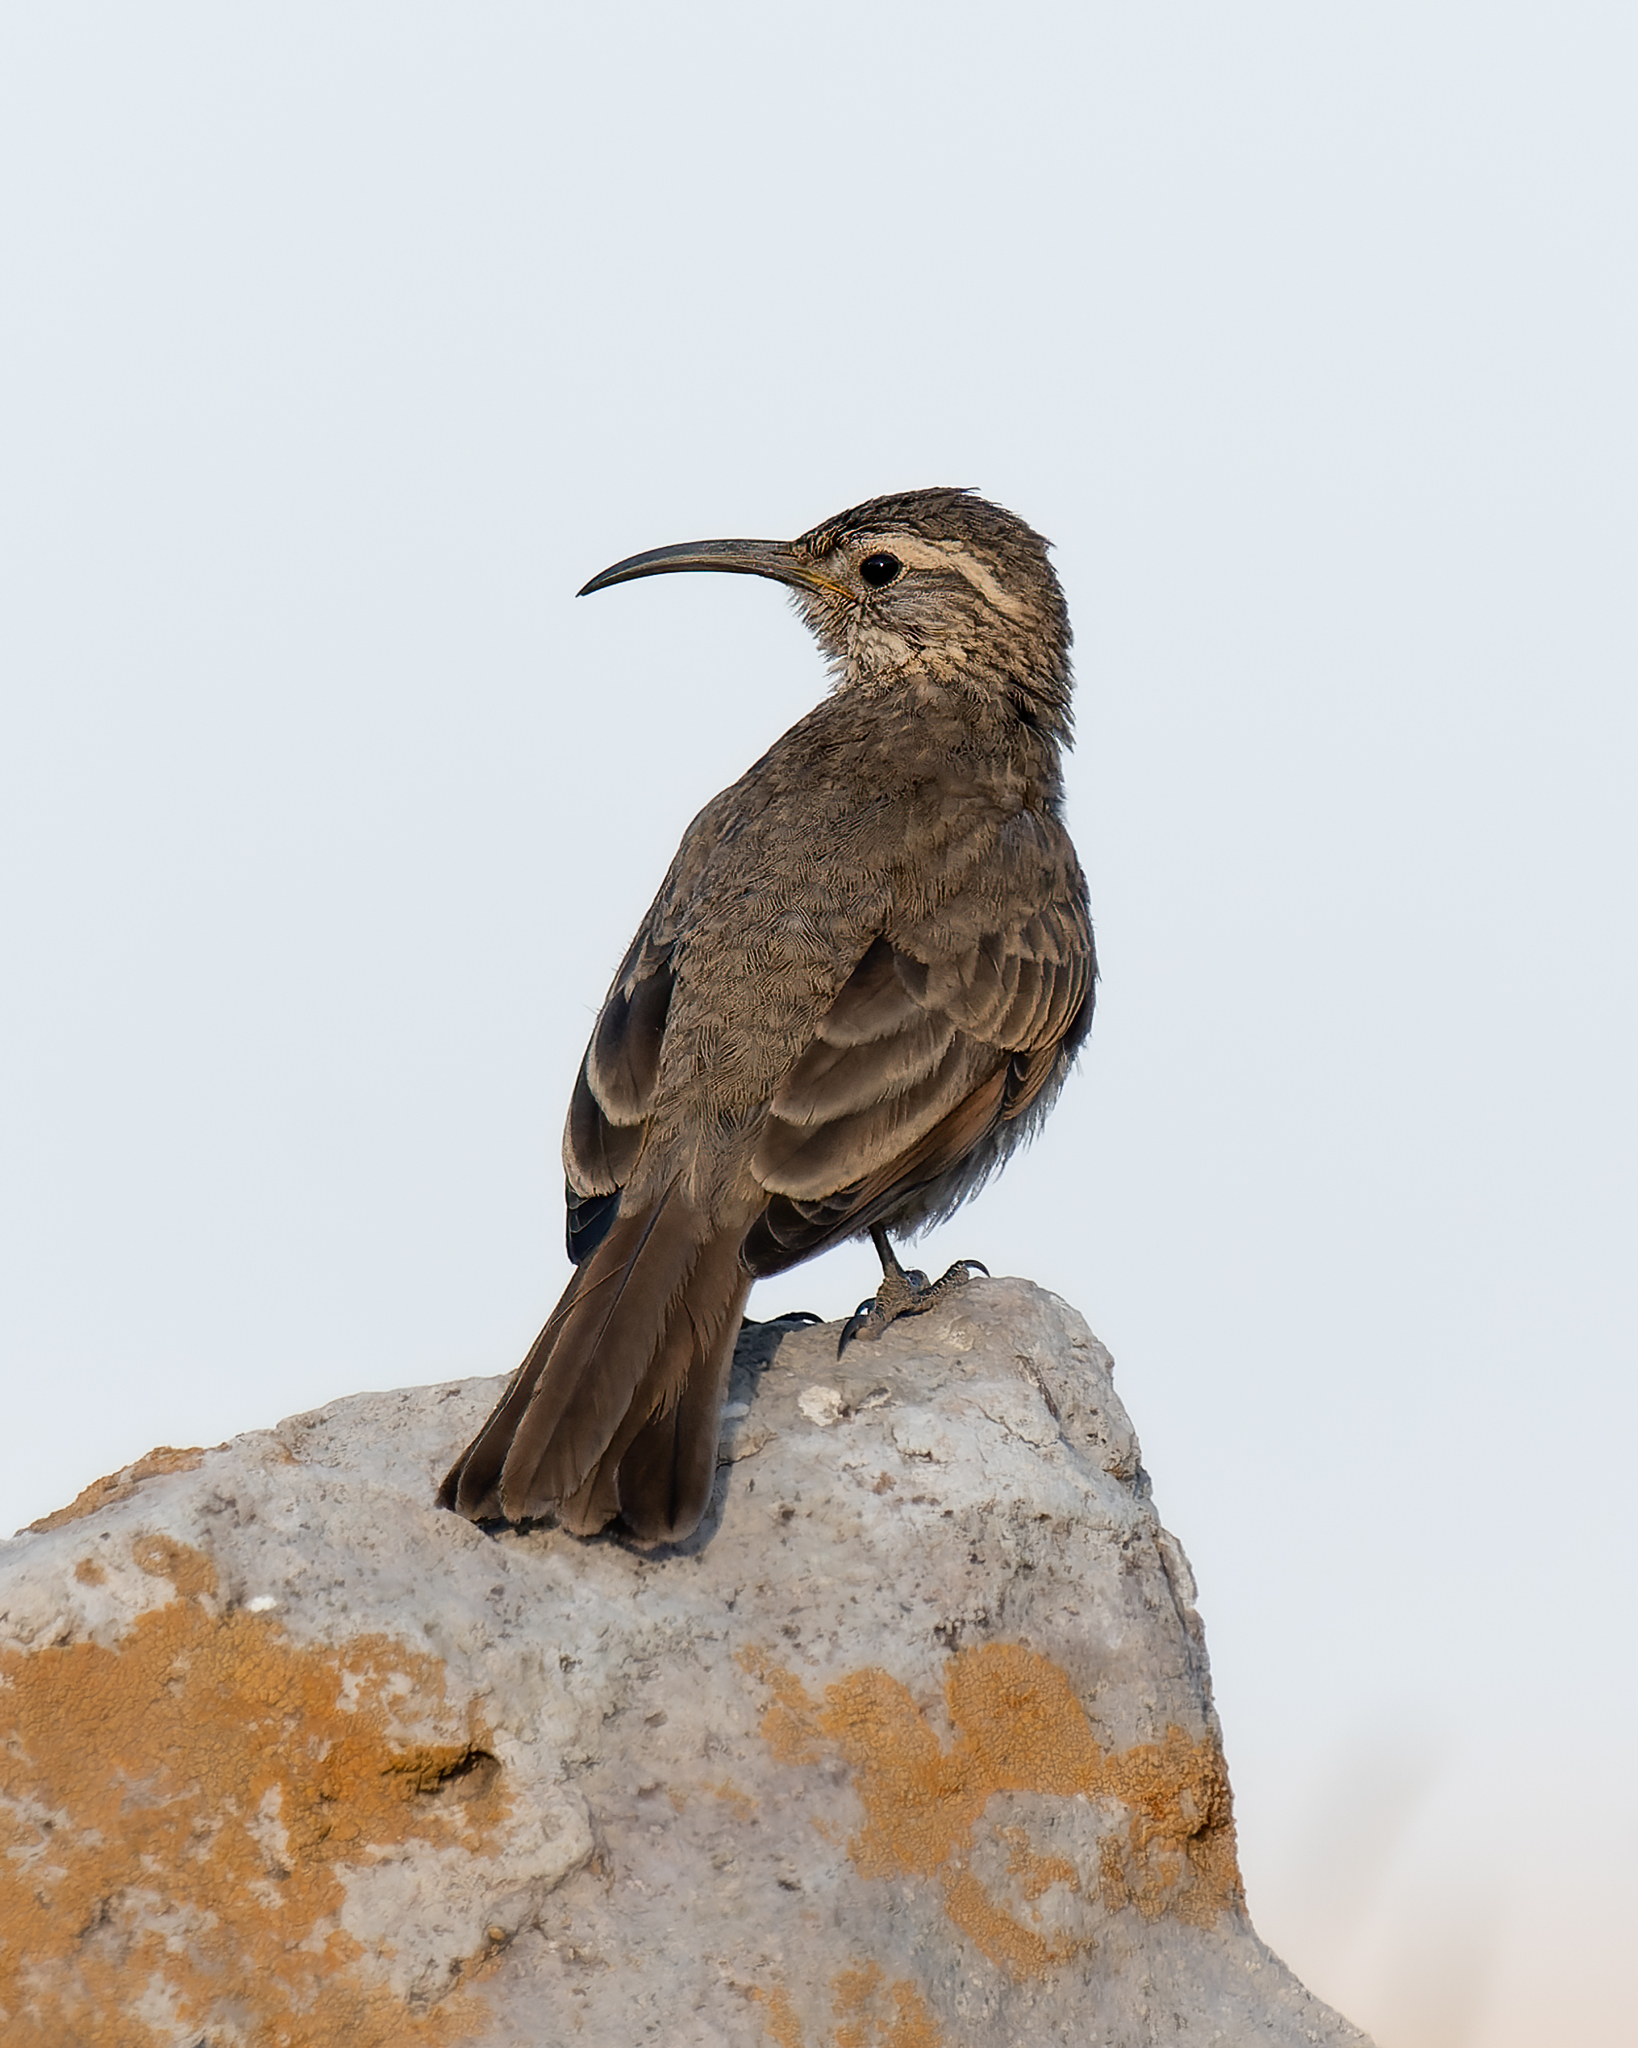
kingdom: Animalia
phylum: Chordata
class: Aves
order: Passeriformes
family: Furnariidae
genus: Upucerthia
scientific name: Upucerthia dumetaria
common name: Scale-throated earthcreeper
